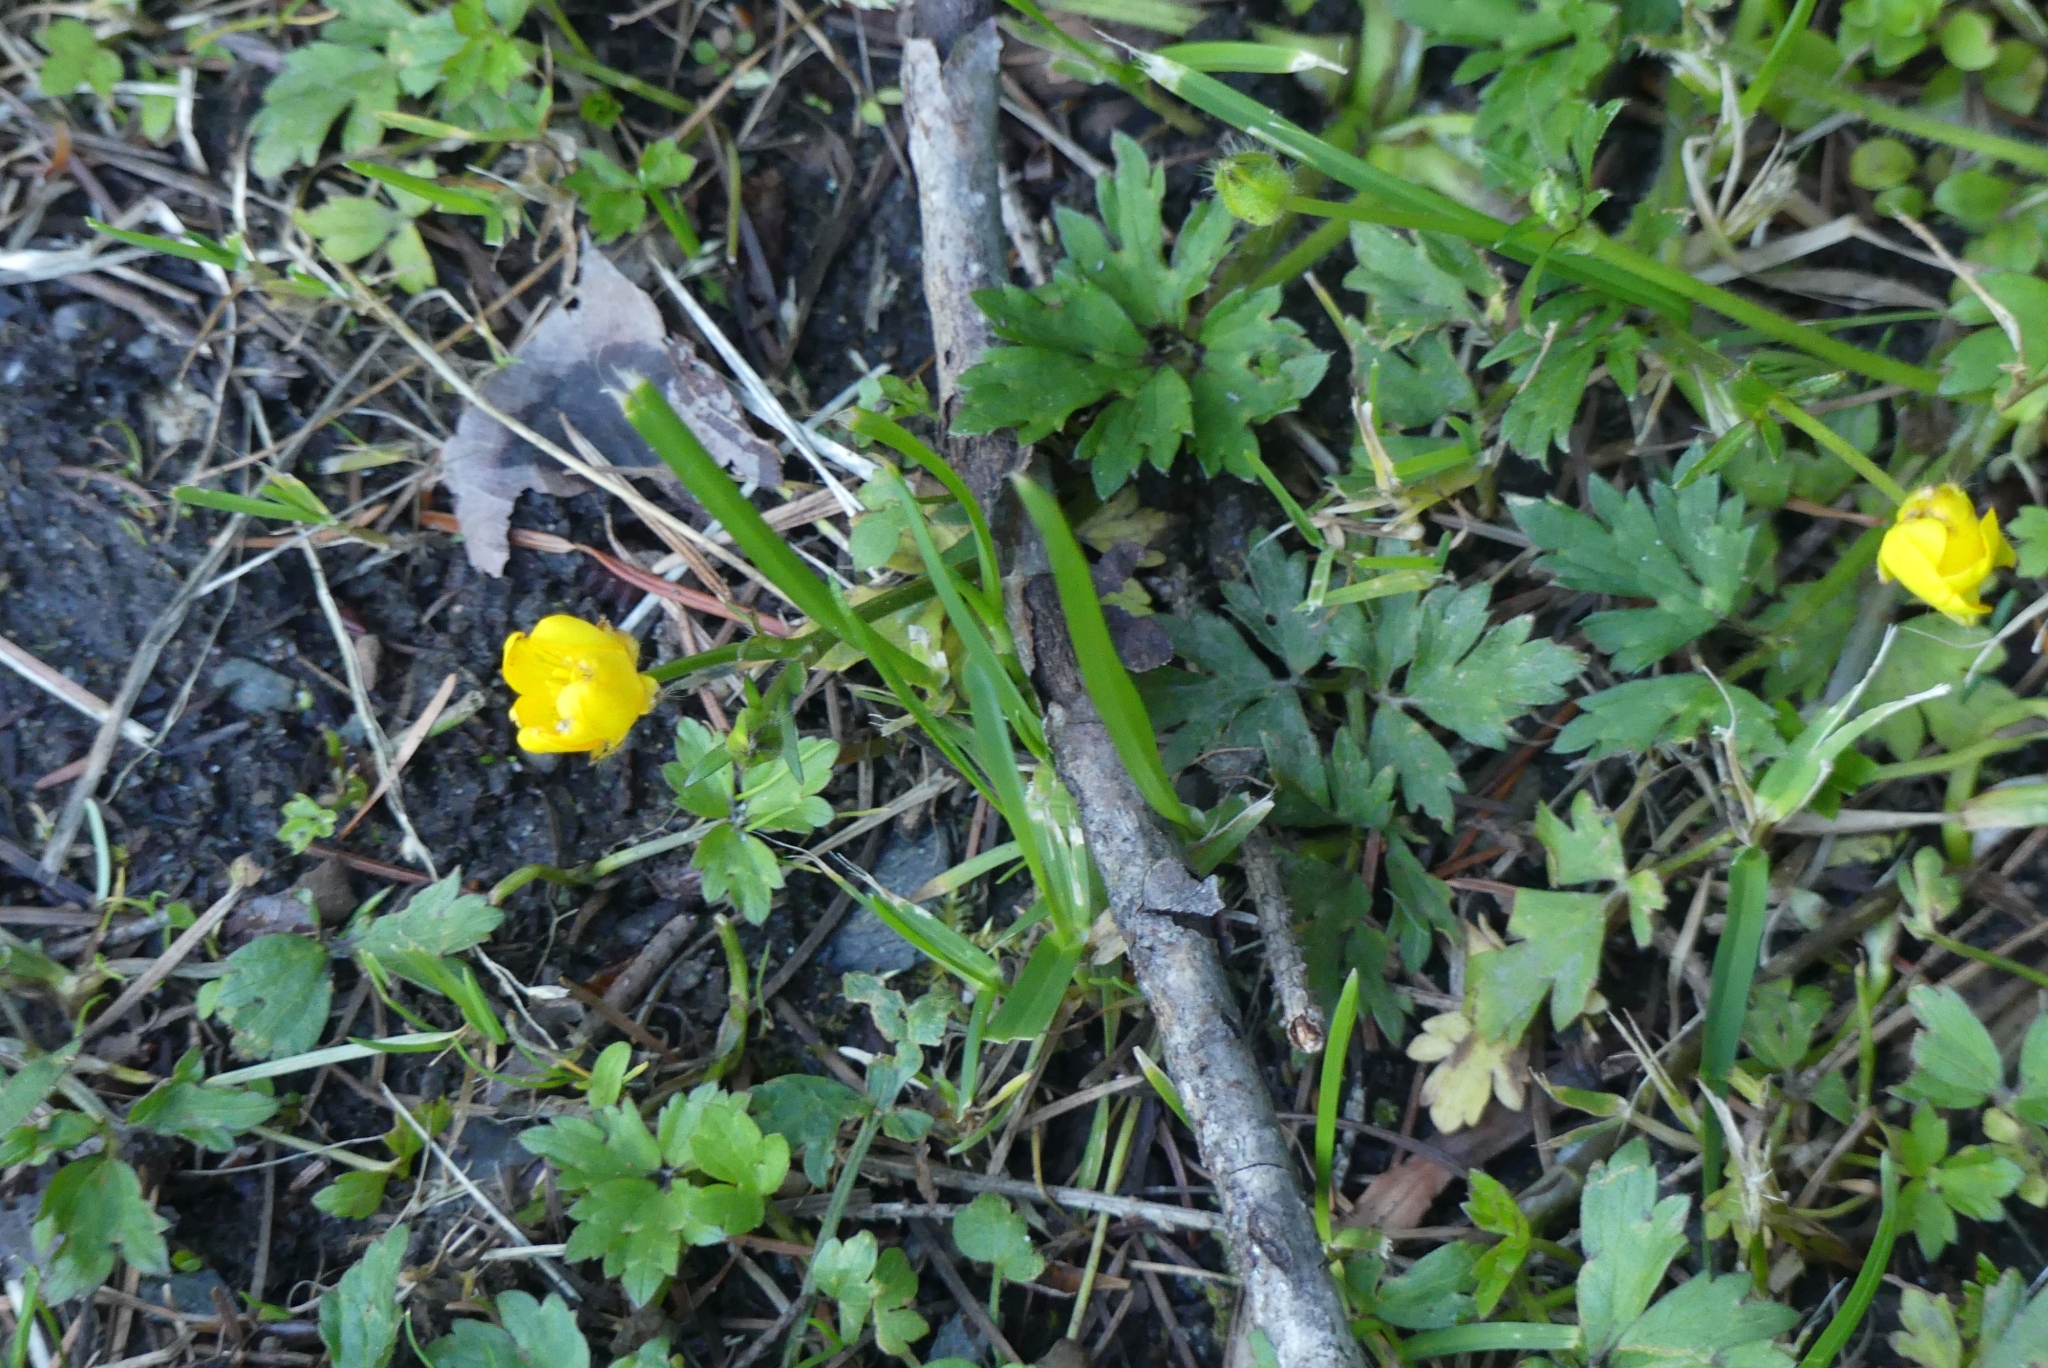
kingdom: Plantae
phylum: Tracheophyta
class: Magnoliopsida
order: Ranunculales
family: Ranunculaceae
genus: Ranunculus
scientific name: Ranunculus repens
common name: Creeping buttercup
